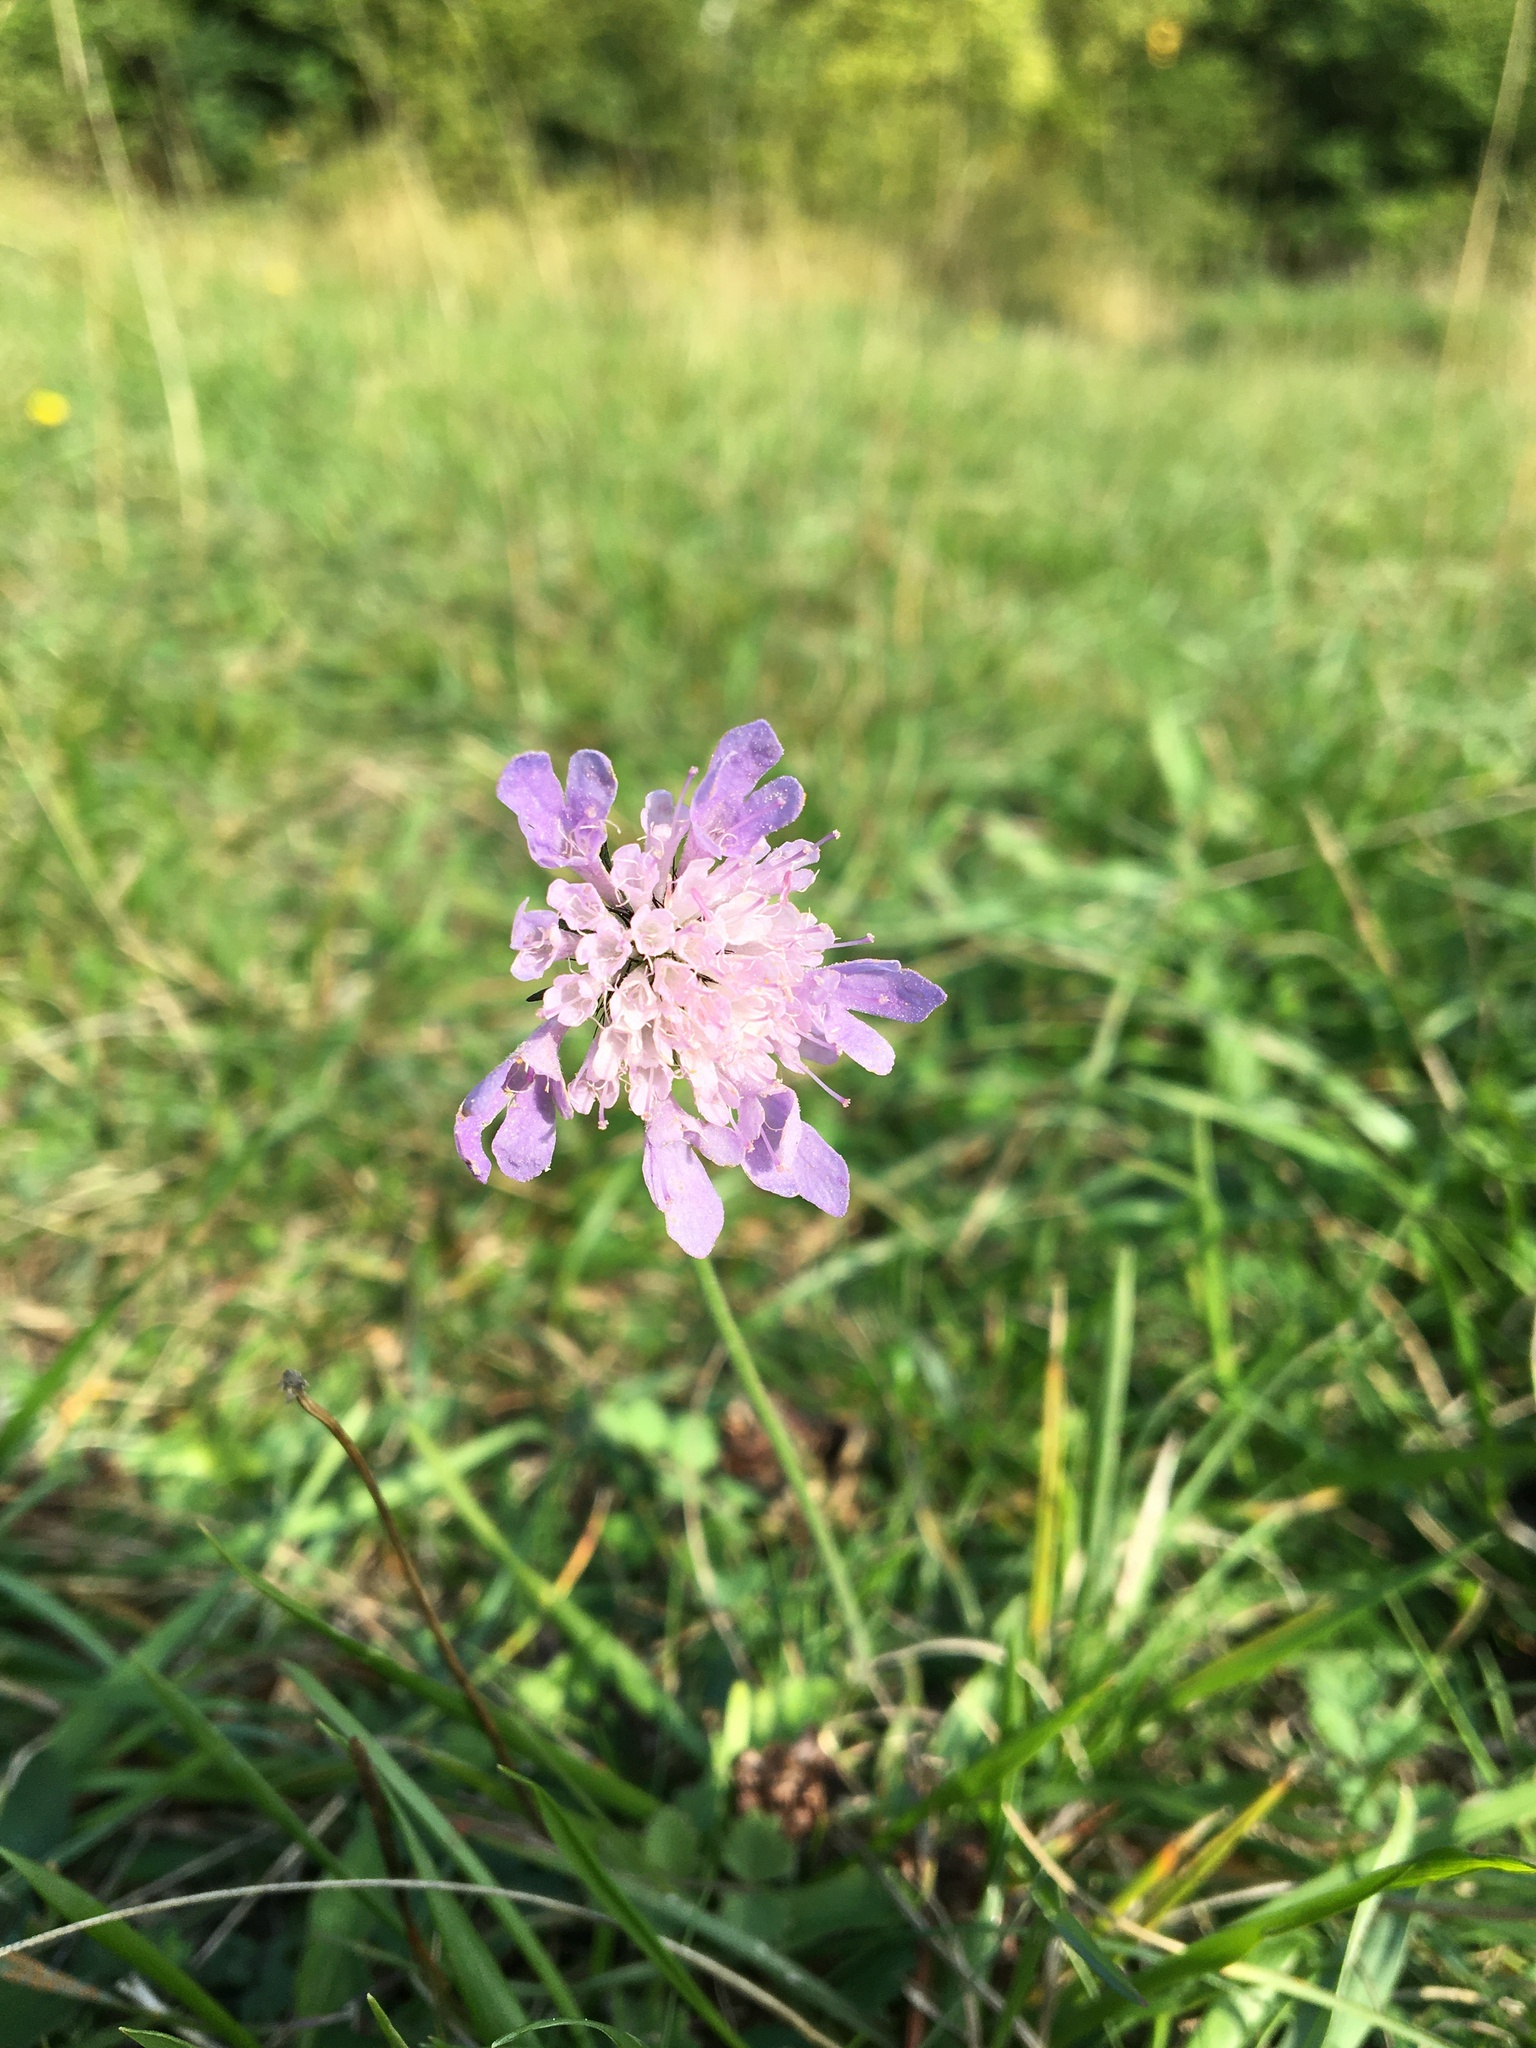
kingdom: Plantae
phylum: Tracheophyta
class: Magnoliopsida
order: Dipsacales
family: Caprifoliaceae
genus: Scabiosa
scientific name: Scabiosa columbaria
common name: Small scabious
